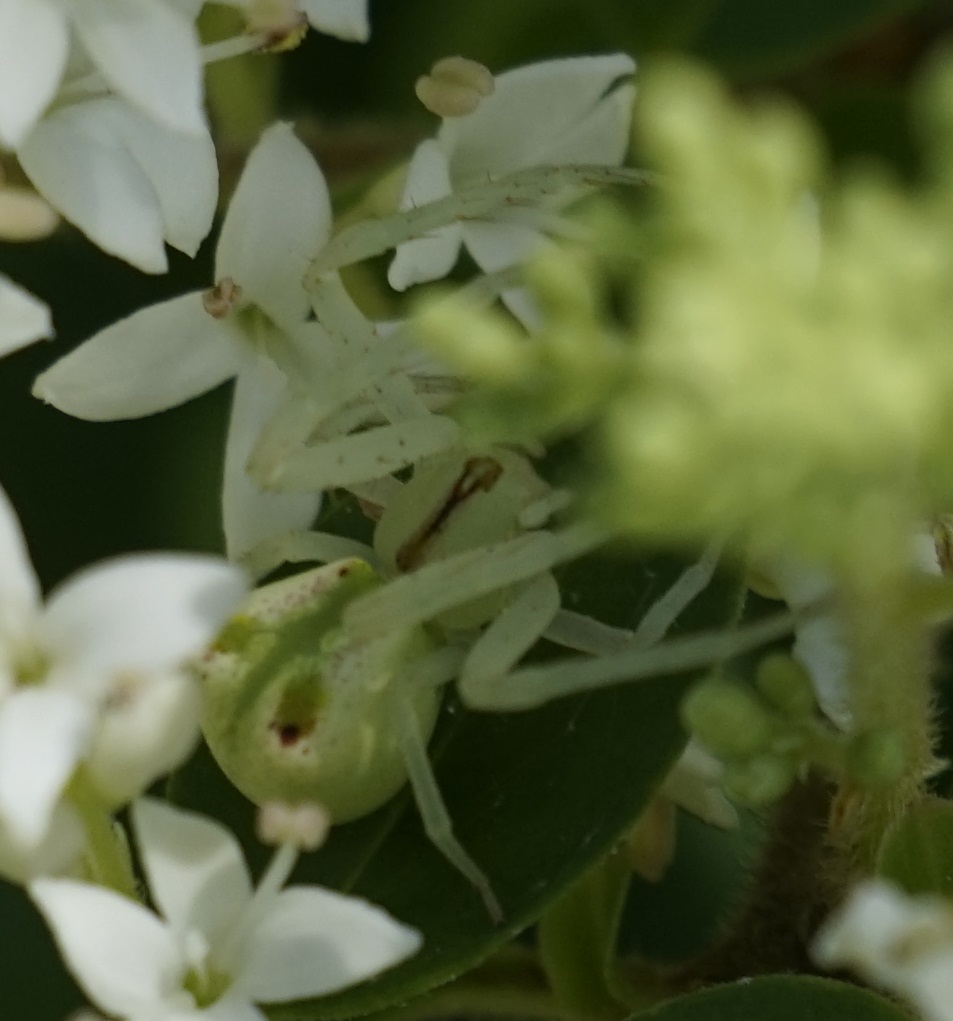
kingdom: Animalia
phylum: Arthropoda
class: Arachnida
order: Araneae
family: Thomisidae
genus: Sidymella
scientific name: Sidymella rubrosignata
